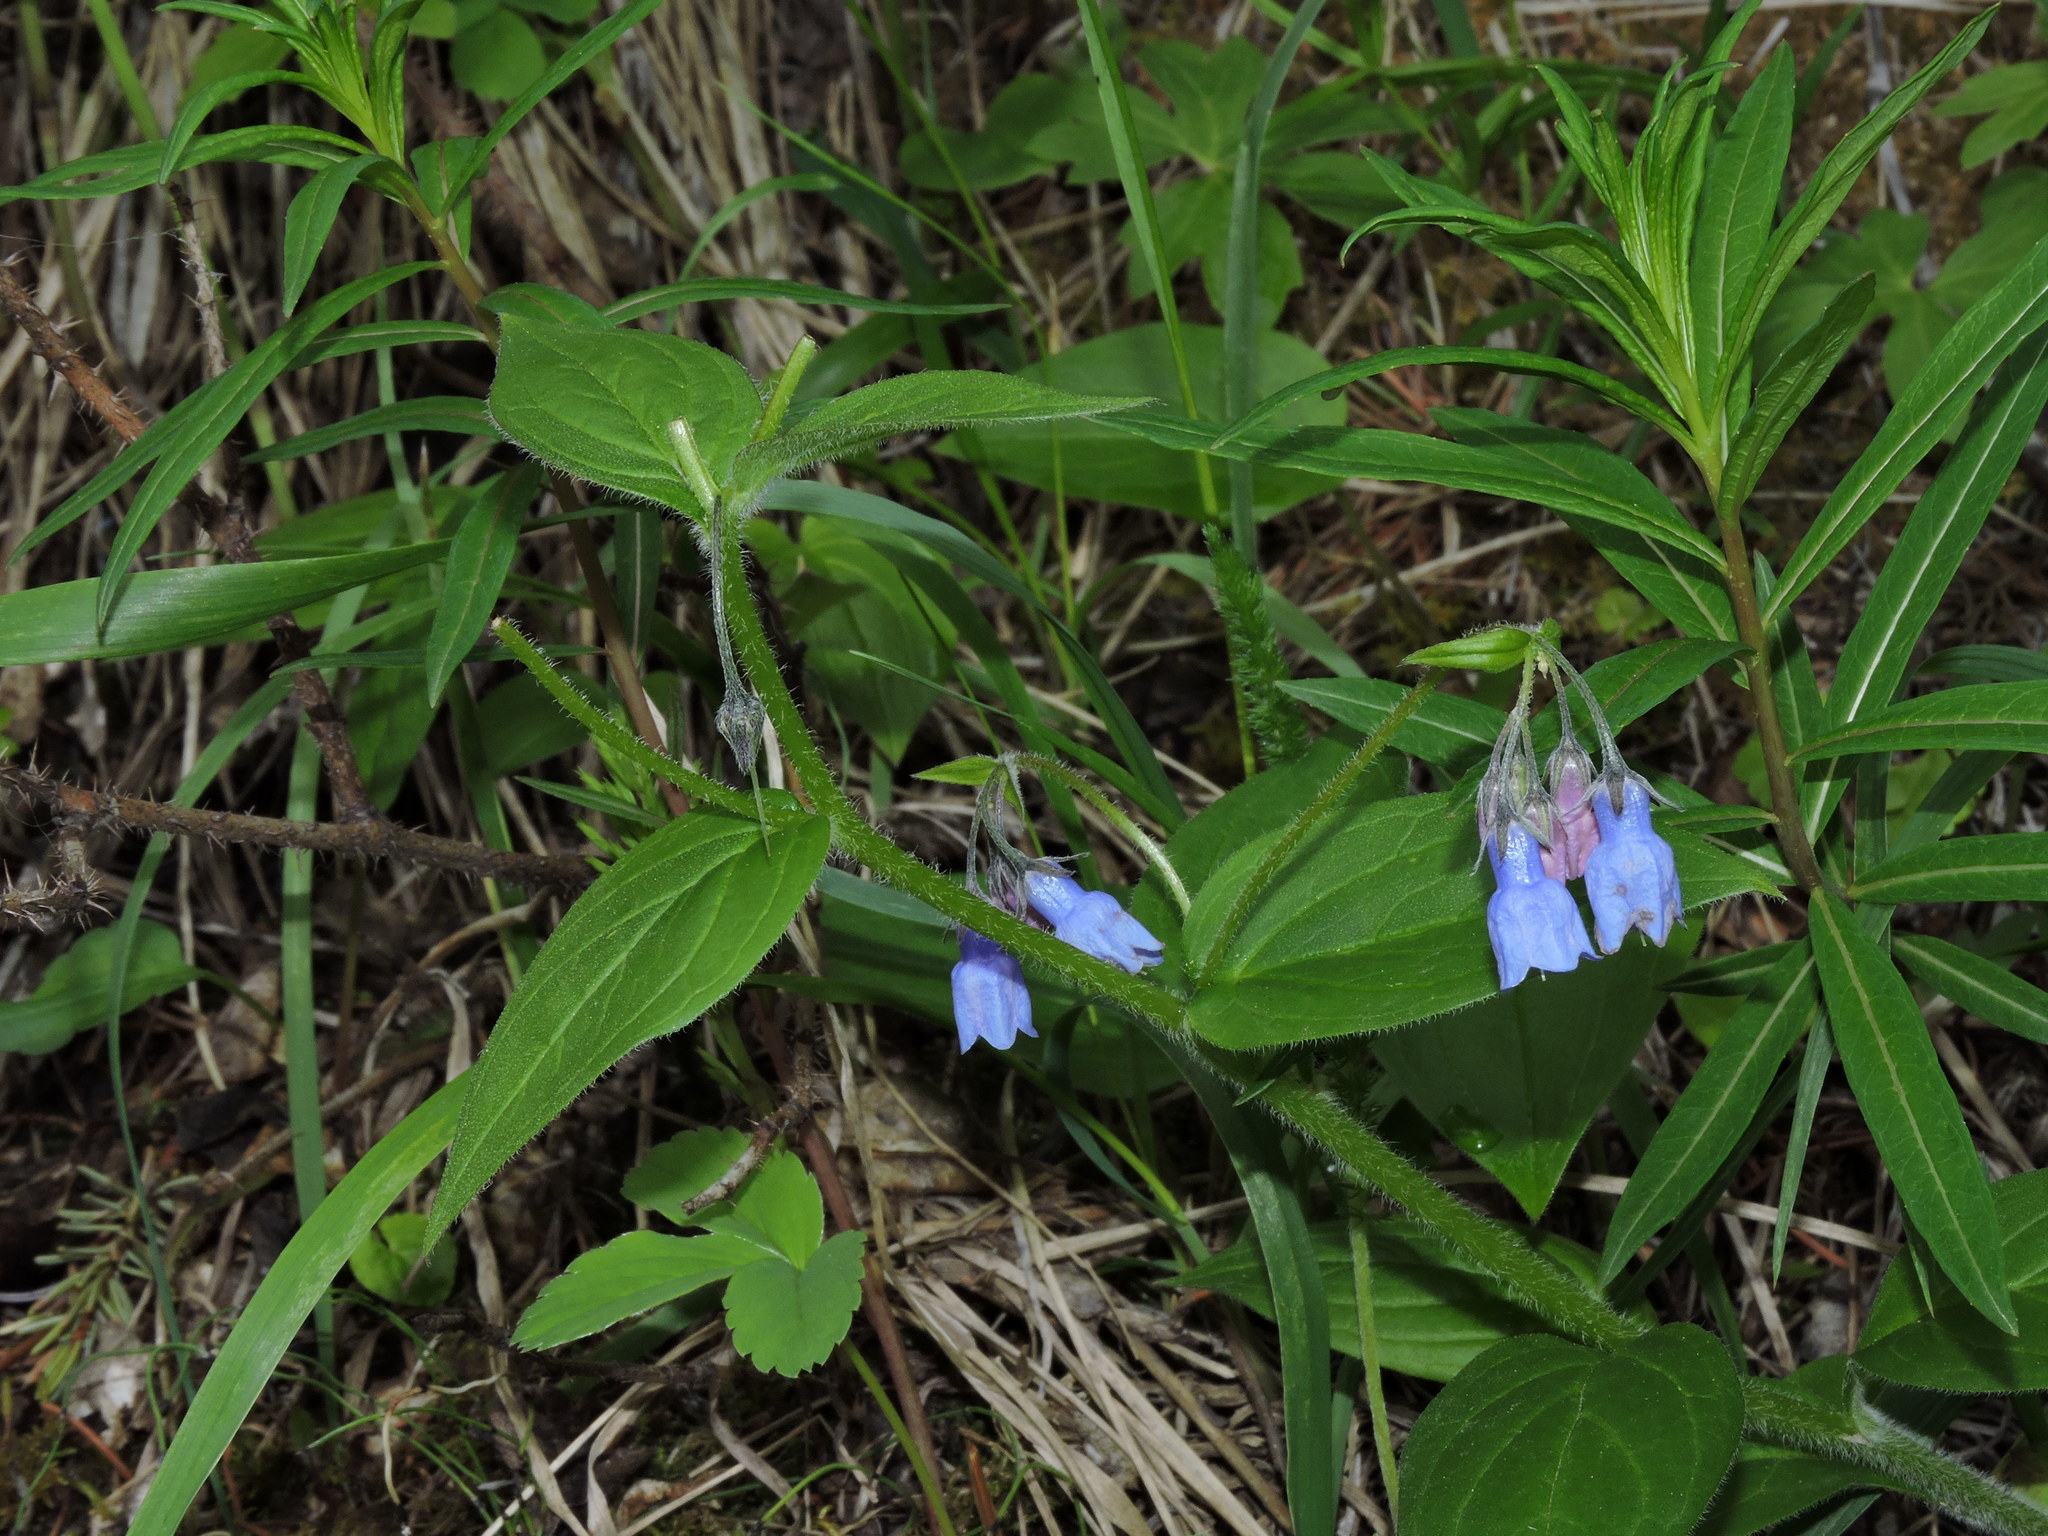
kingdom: Plantae
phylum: Tracheophyta
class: Magnoliopsida
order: Boraginales
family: Boraginaceae
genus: Mertensia
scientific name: Mertensia paniculata
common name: Panicled bluebells
